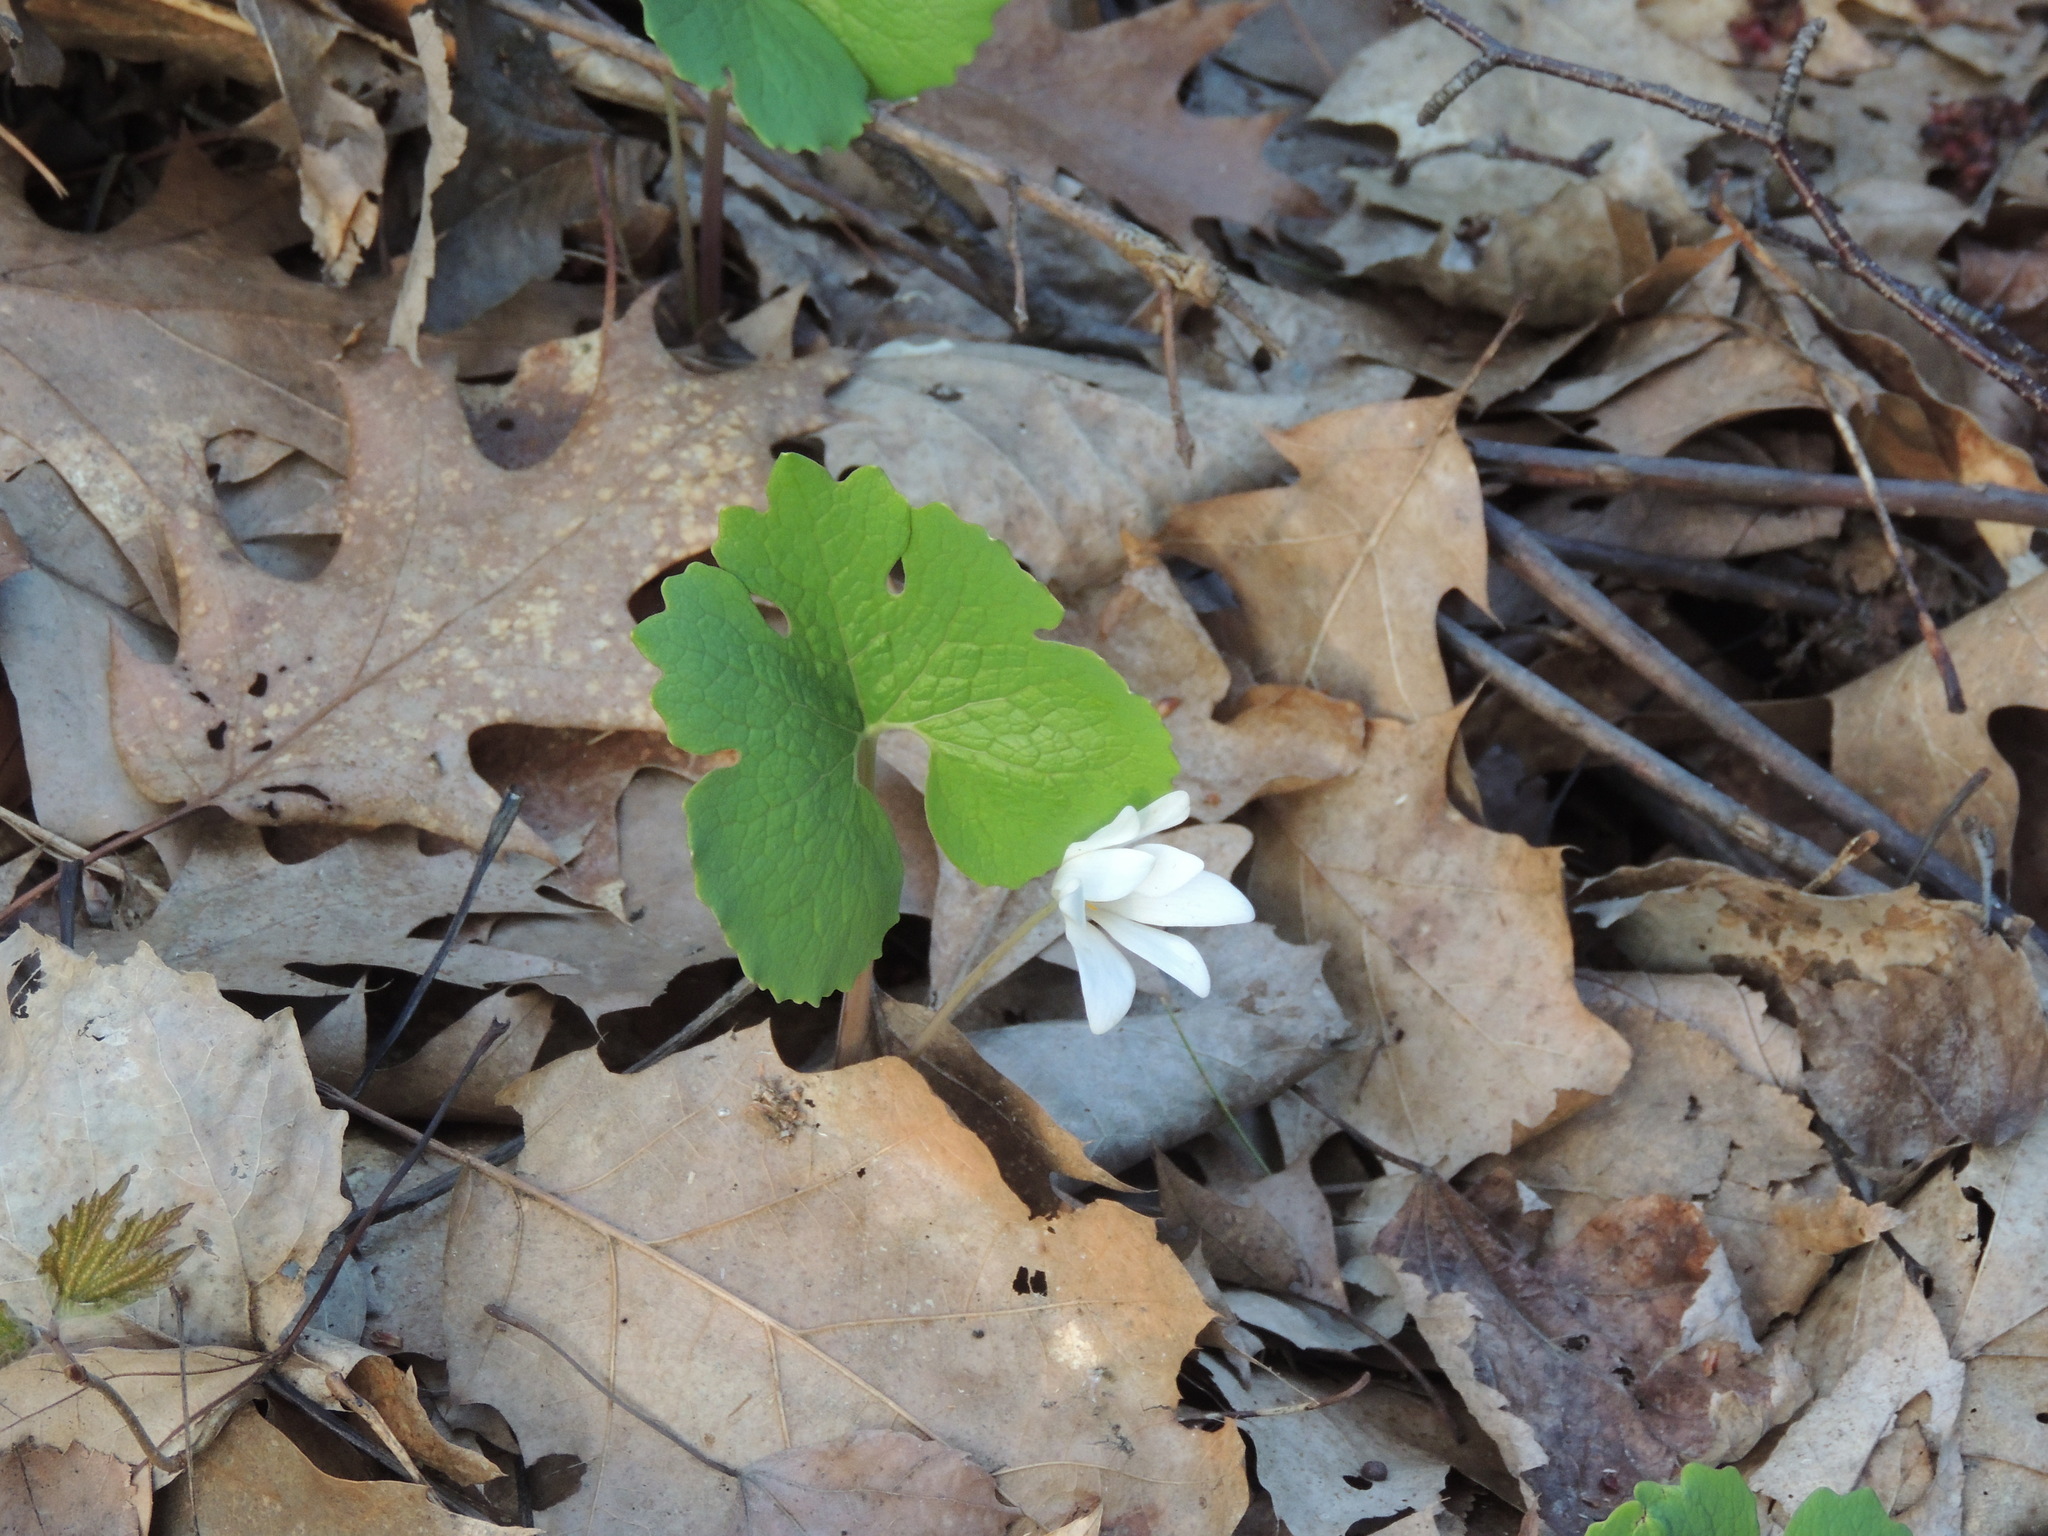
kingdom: Plantae
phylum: Tracheophyta
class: Magnoliopsida
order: Ranunculales
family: Papaveraceae
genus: Sanguinaria
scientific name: Sanguinaria canadensis
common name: Bloodroot
